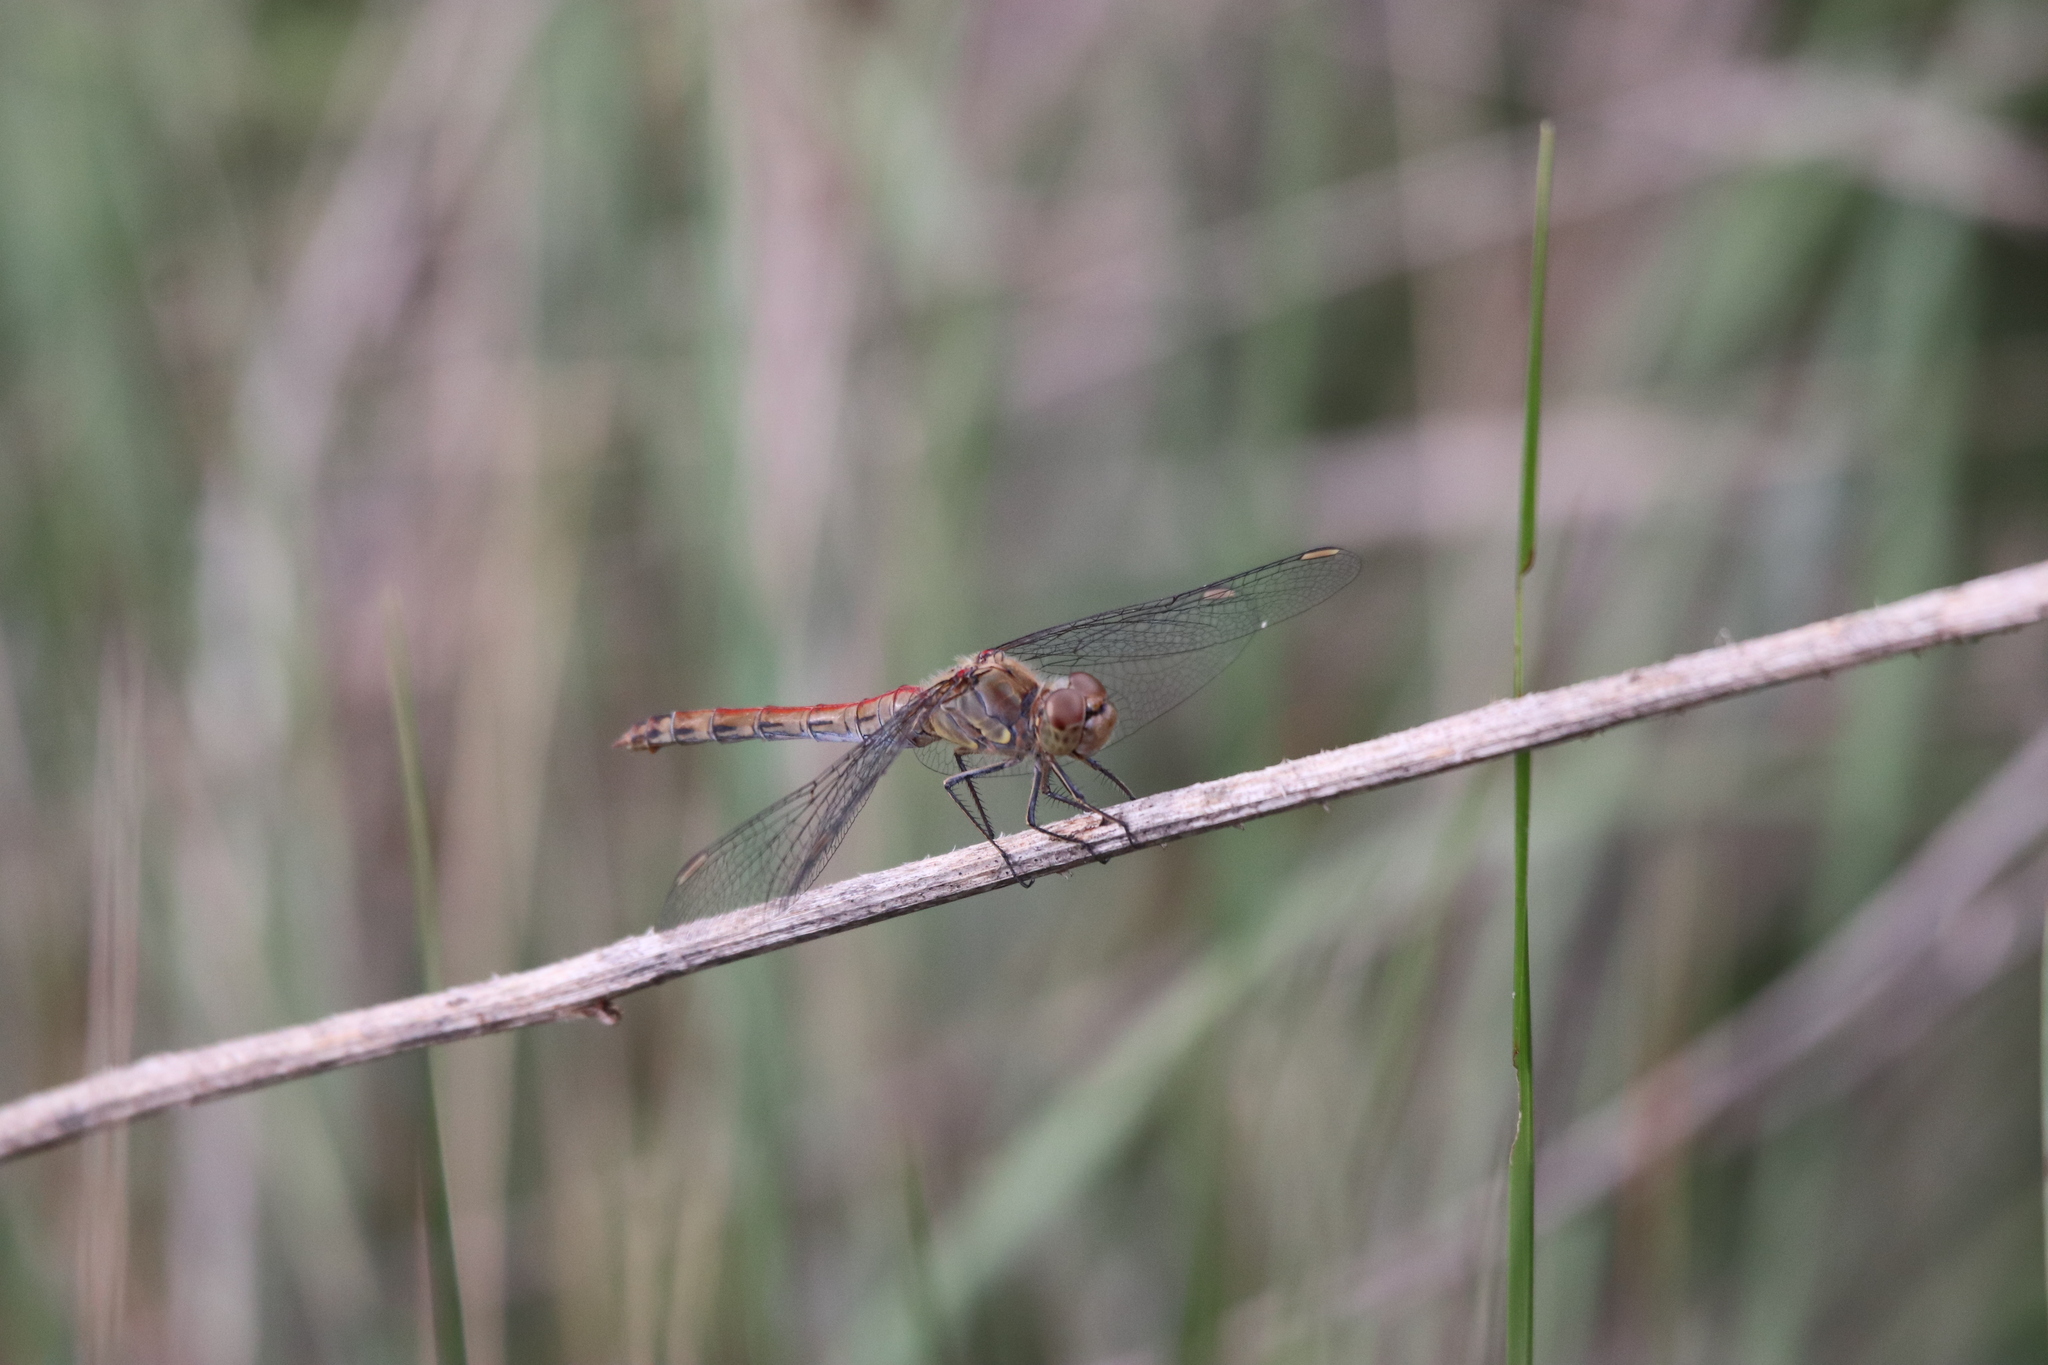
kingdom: Animalia
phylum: Arthropoda
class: Insecta
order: Odonata
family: Libellulidae
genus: Sympetrum
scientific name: Sympetrum striolatum
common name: Common darter
